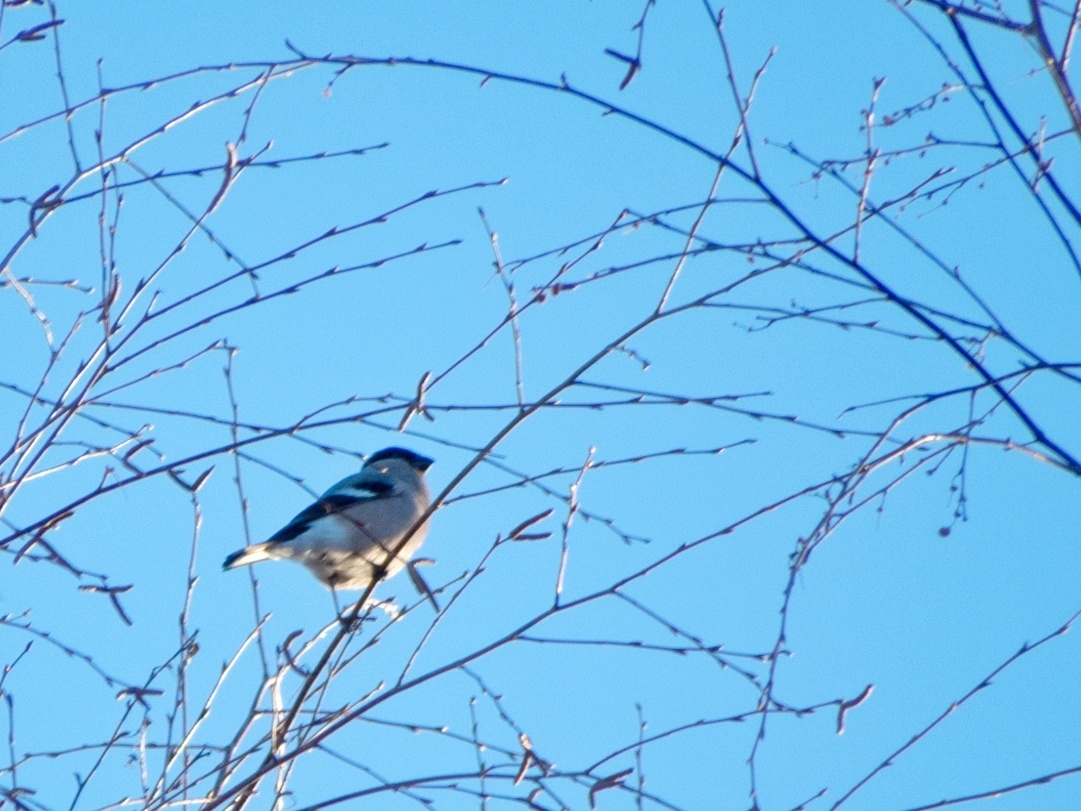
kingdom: Animalia
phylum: Chordata
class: Aves
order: Passeriformes
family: Fringillidae
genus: Pyrrhula
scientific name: Pyrrhula pyrrhula
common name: Eurasian bullfinch
